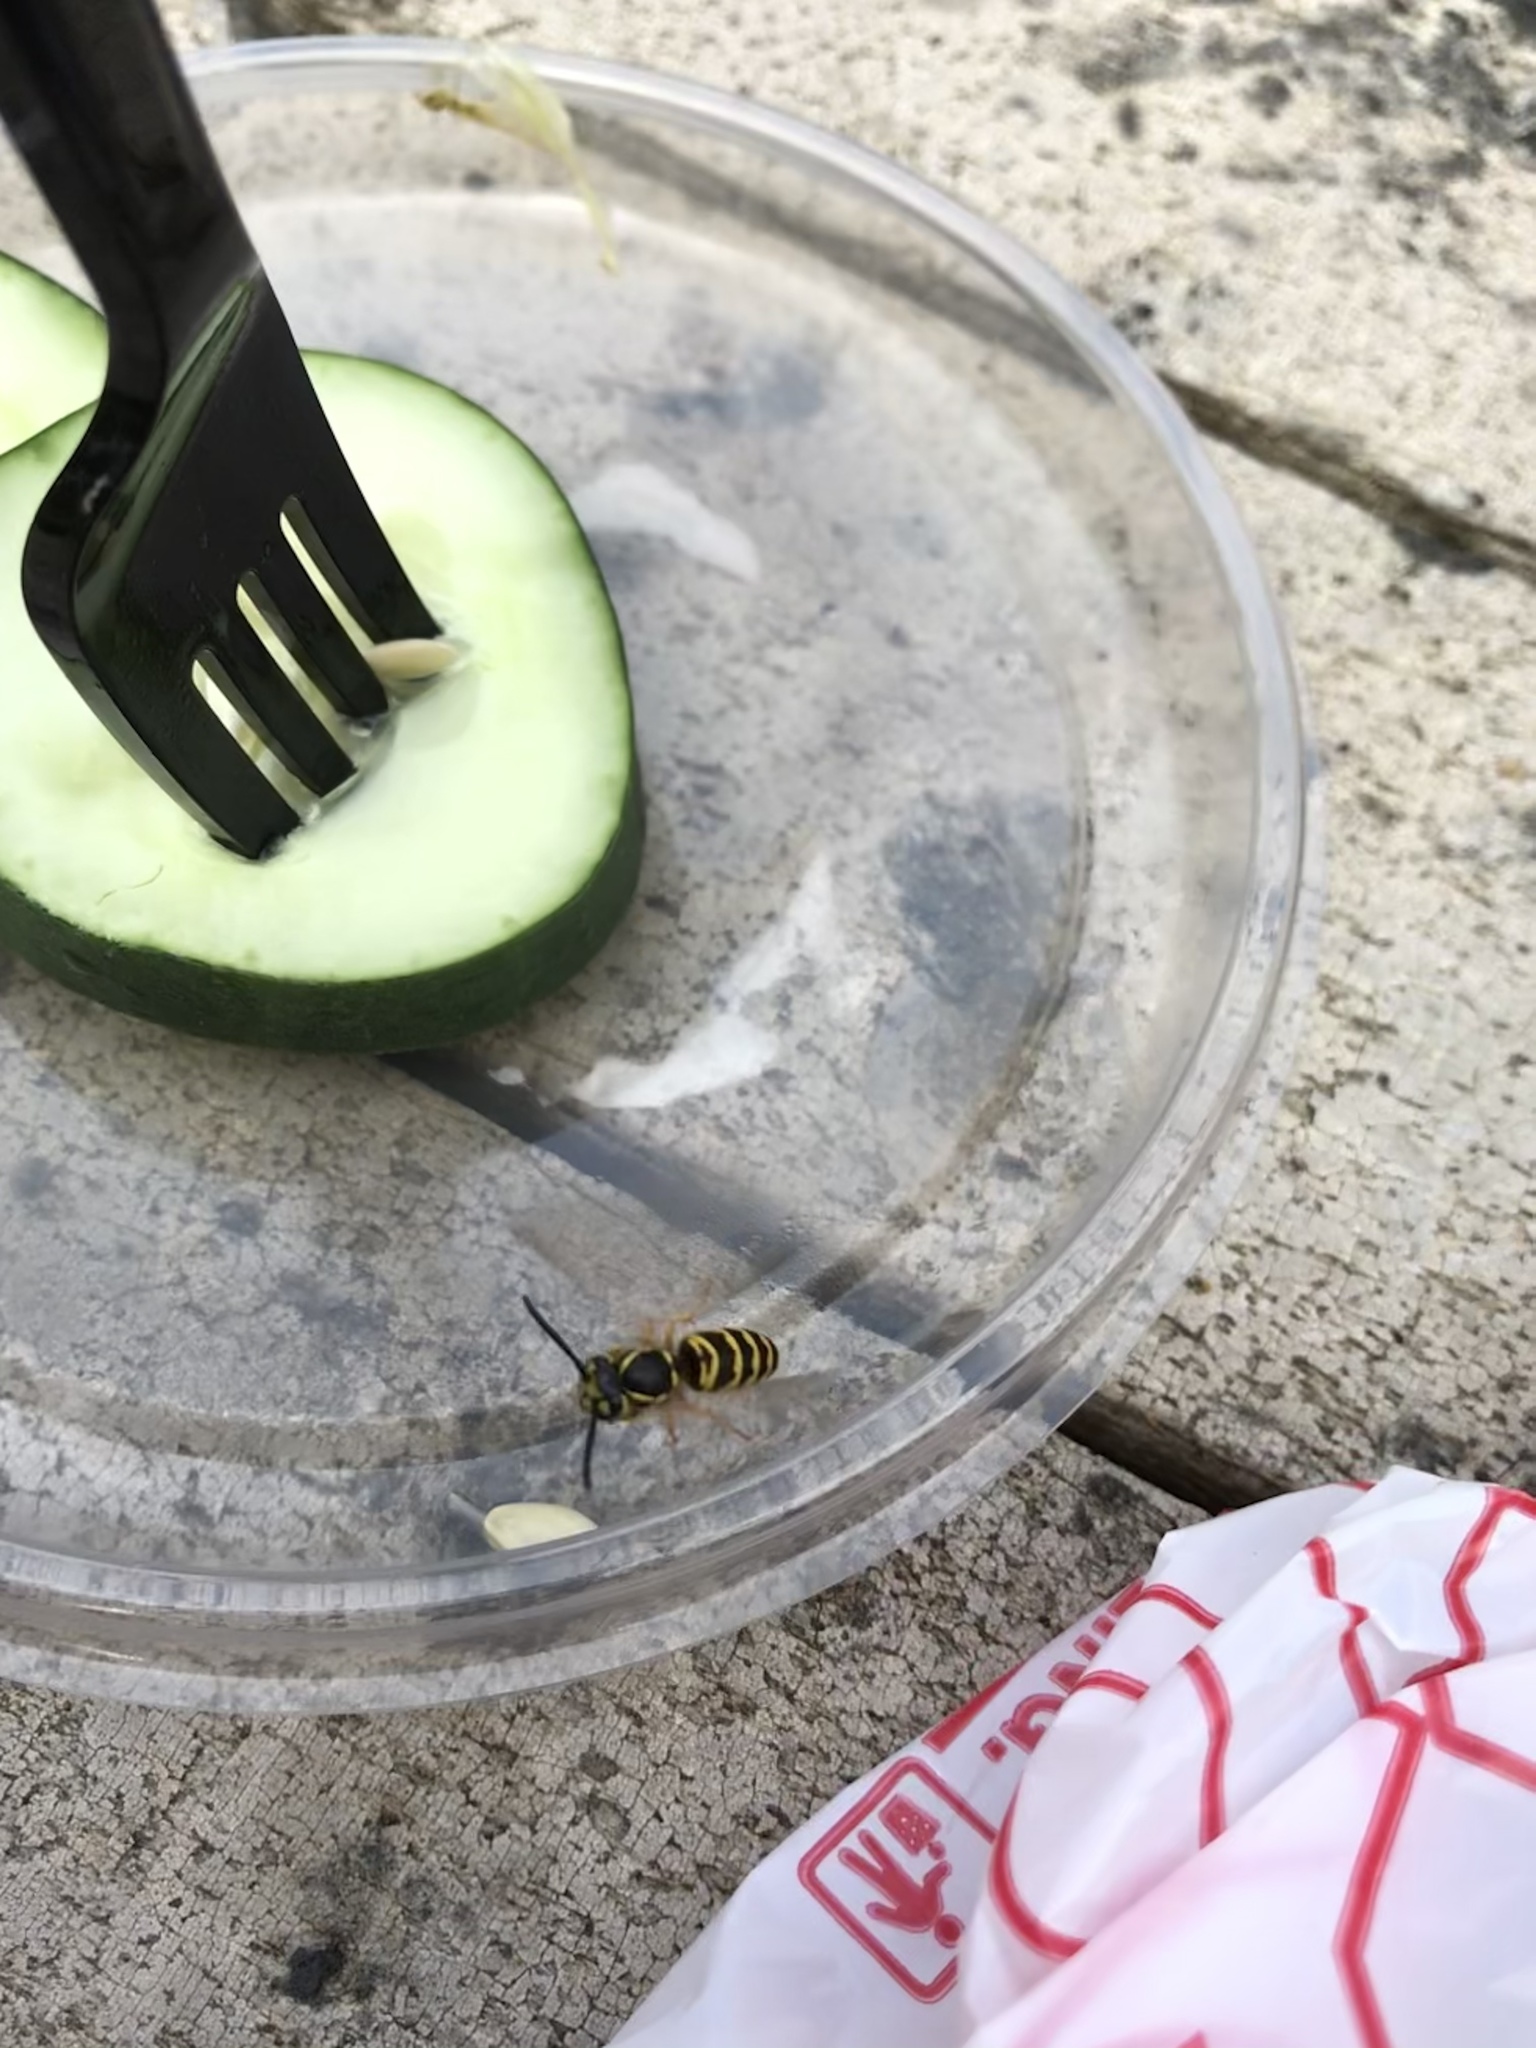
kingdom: Animalia
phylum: Arthropoda
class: Insecta
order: Hymenoptera
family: Vespidae
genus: Vespula
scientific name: Vespula maculifrons
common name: Eastern yellowjacket
